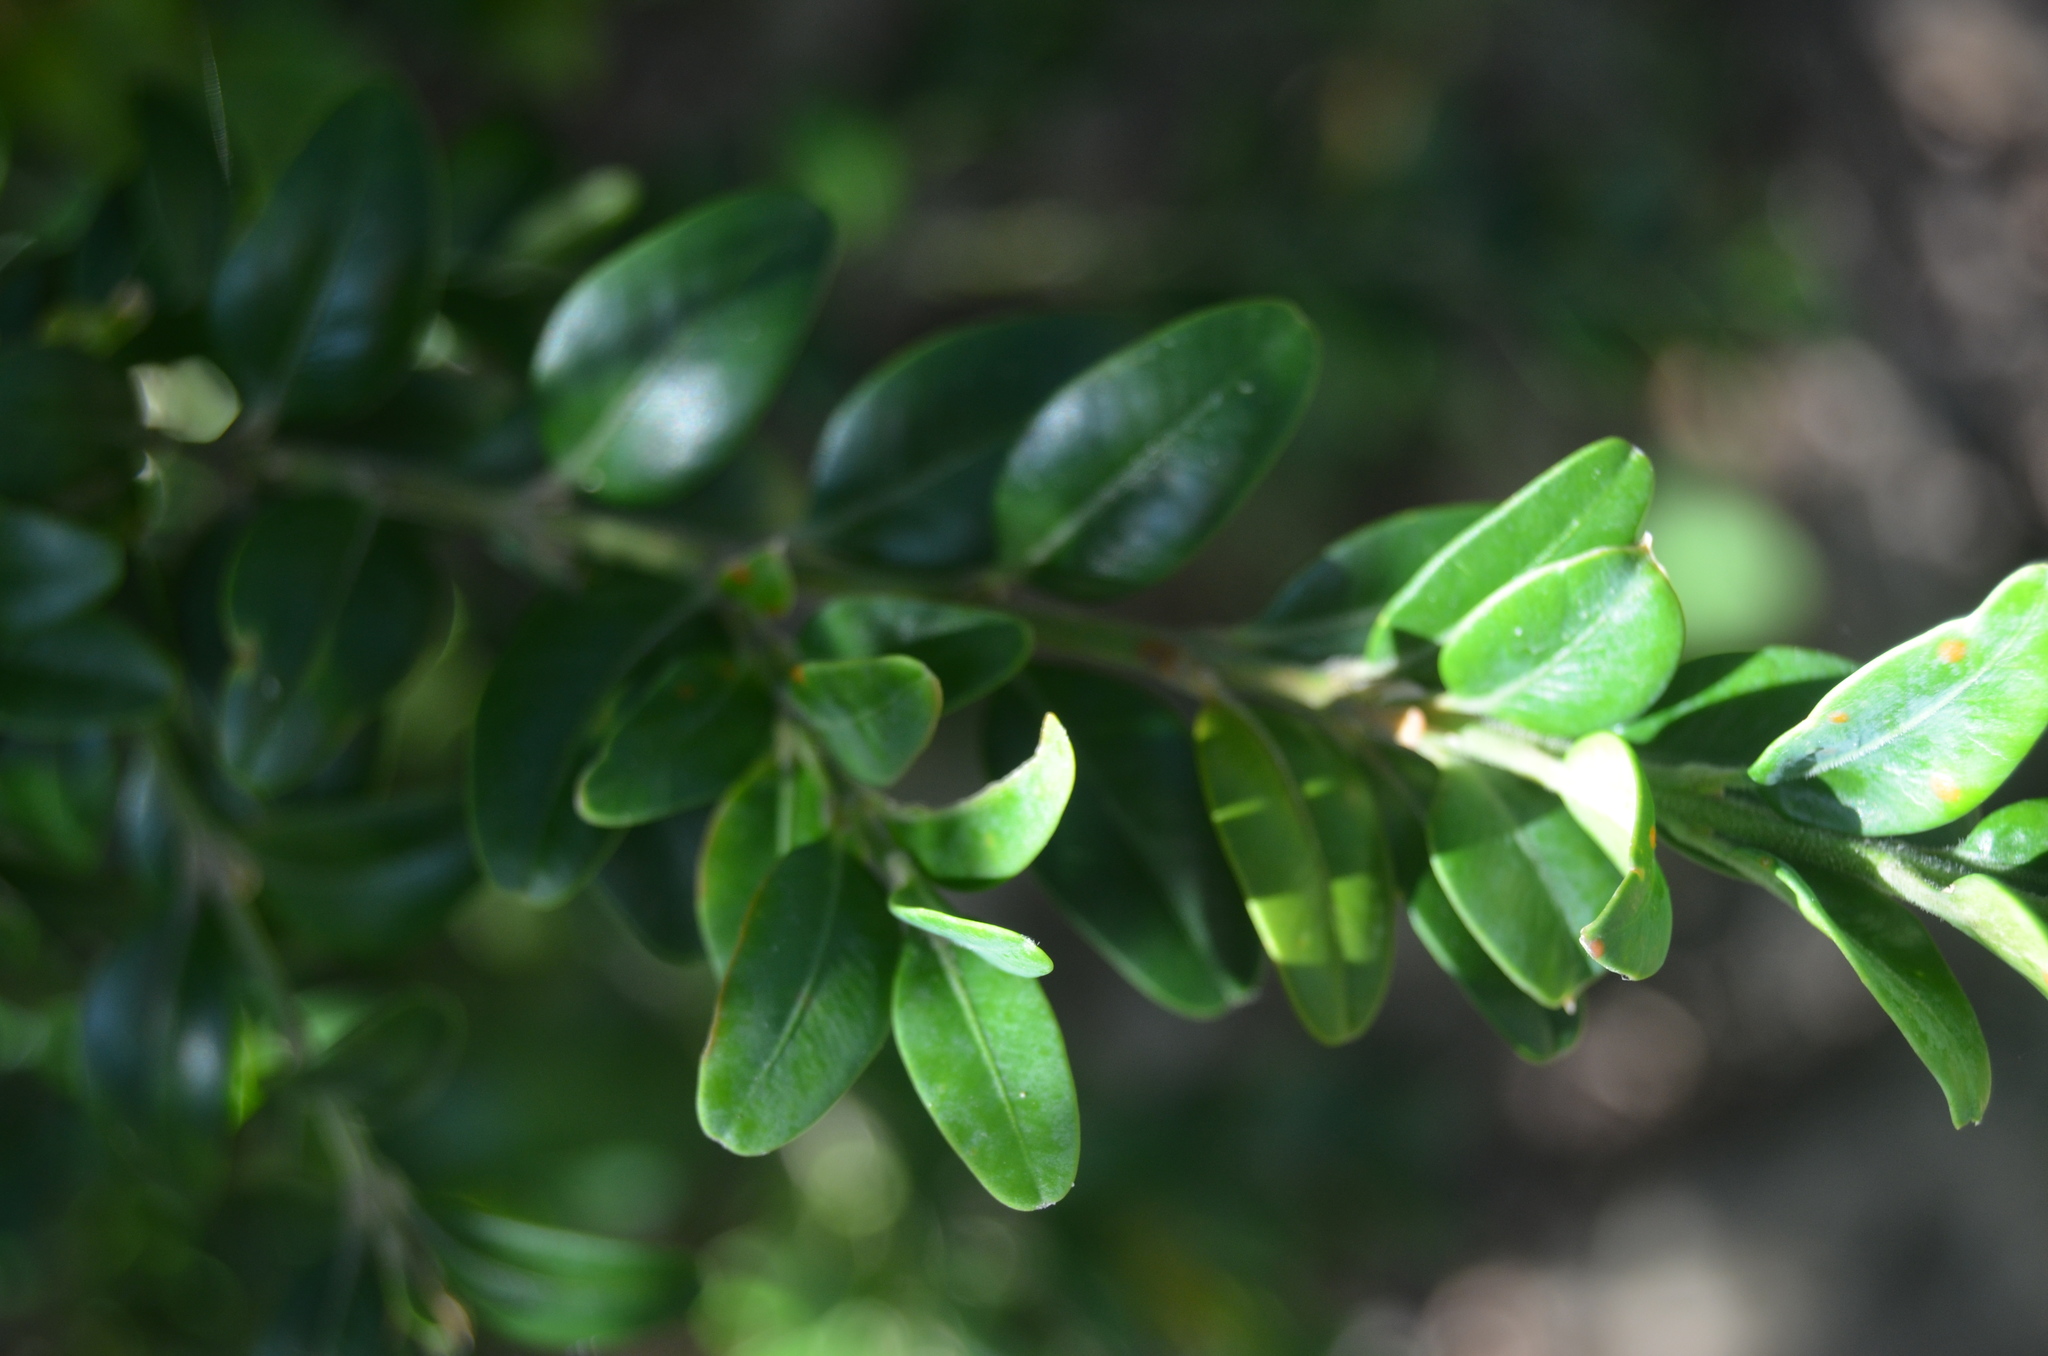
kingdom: Plantae
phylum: Tracheophyta
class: Magnoliopsida
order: Buxales
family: Buxaceae
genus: Buxus
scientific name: Buxus sempervirens
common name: Box
